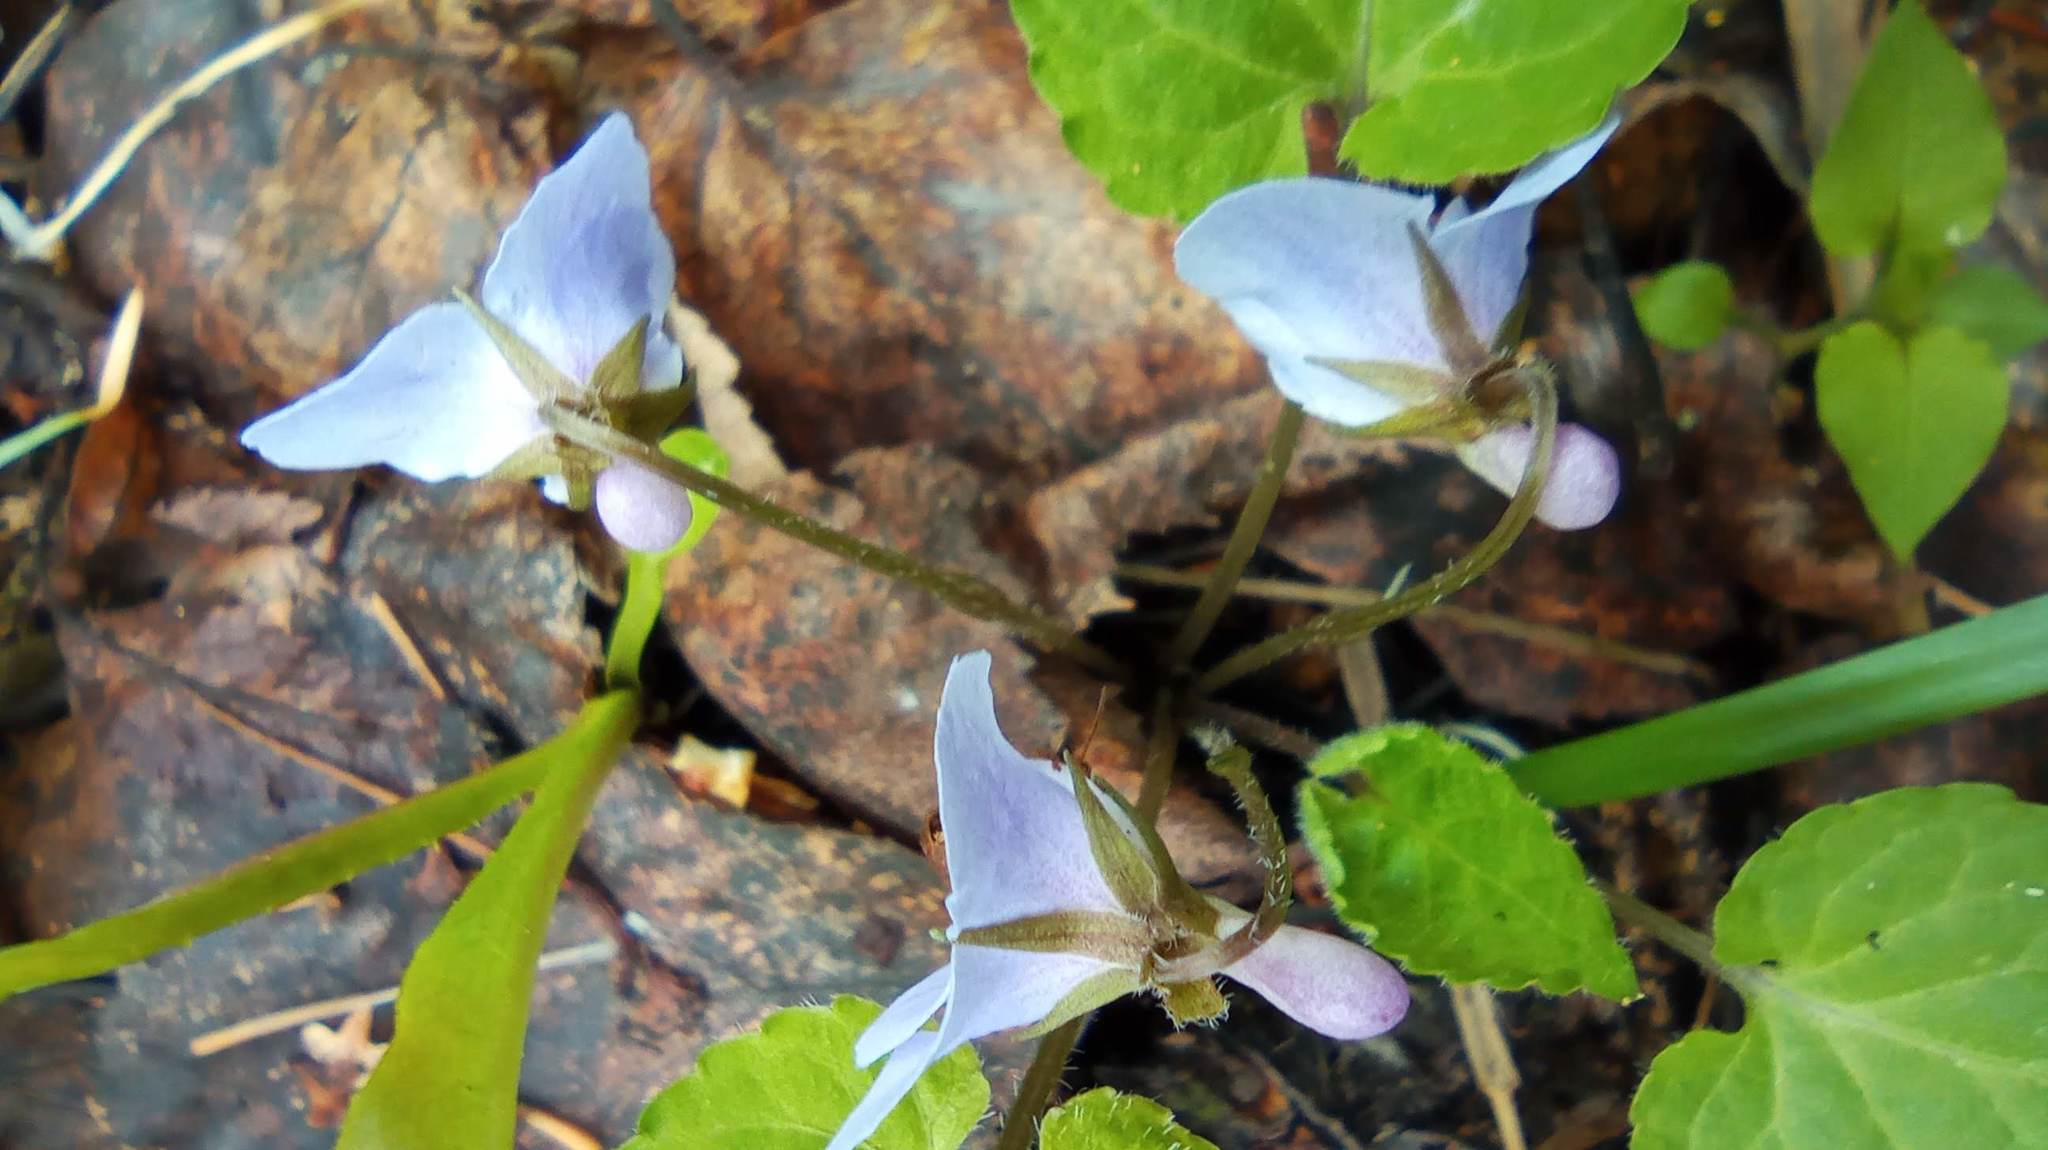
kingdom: Plantae
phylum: Tracheophyta
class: Magnoliopsida
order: Malpighiales
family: Violaceae
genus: Viola
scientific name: Viola selkirkii
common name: Selkirk's violet
